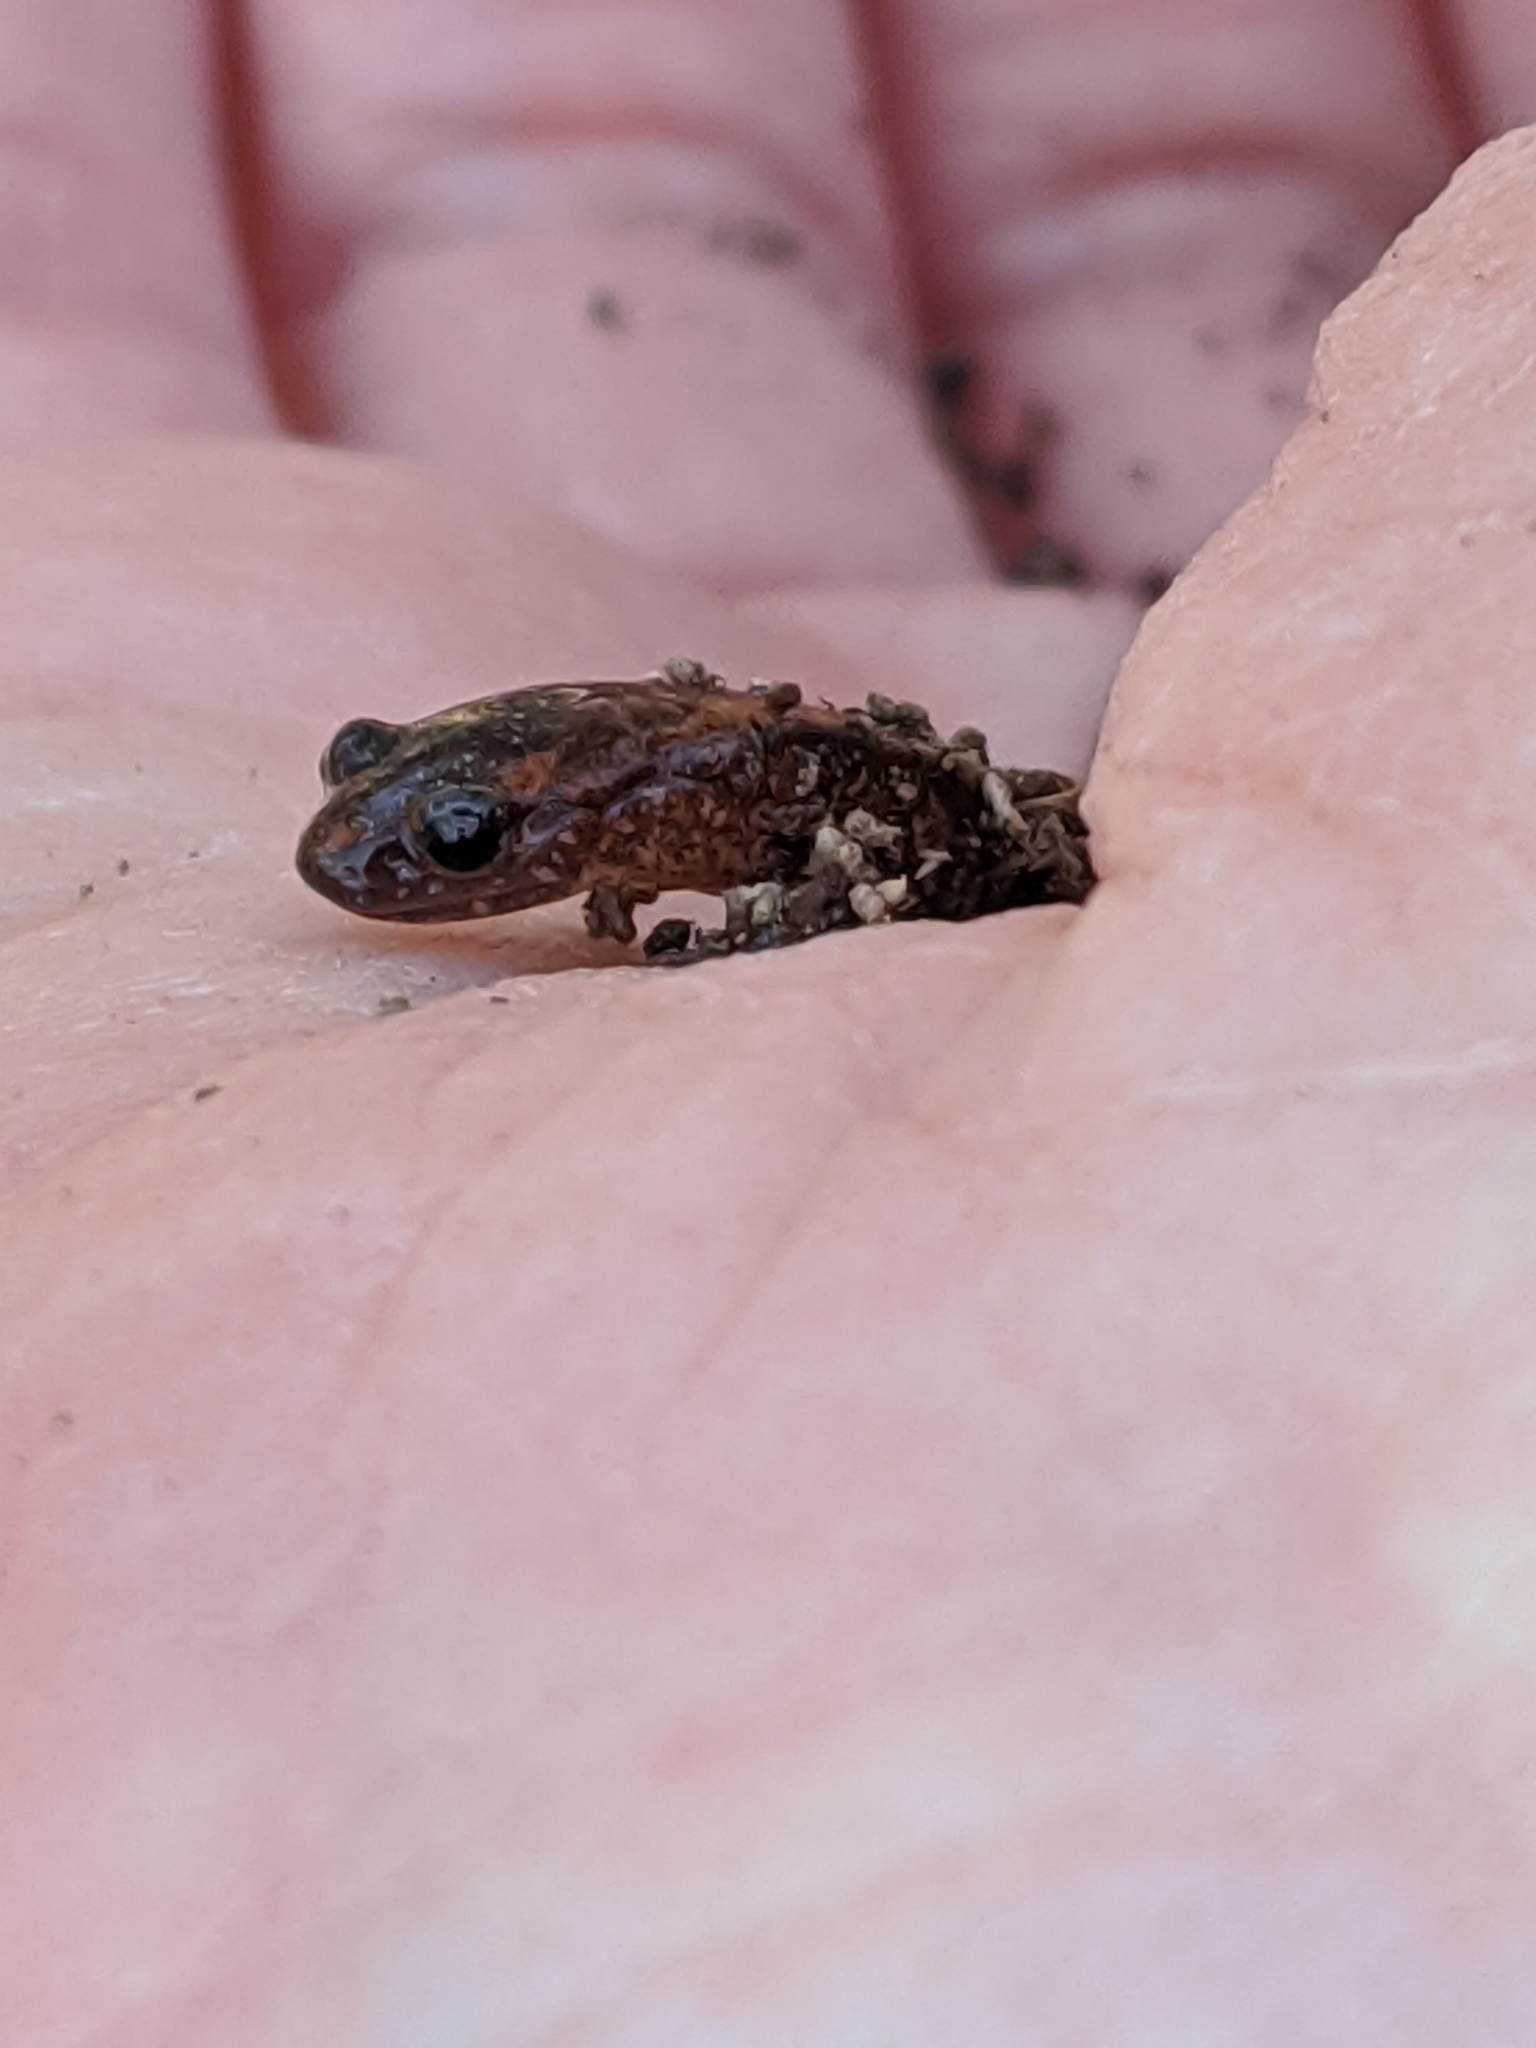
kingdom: Animalia
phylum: Chordata
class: Amphibia
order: Caudata
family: Plethodontidae
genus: Plethodon
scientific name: Plethodon cinereus
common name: Redback salamander
